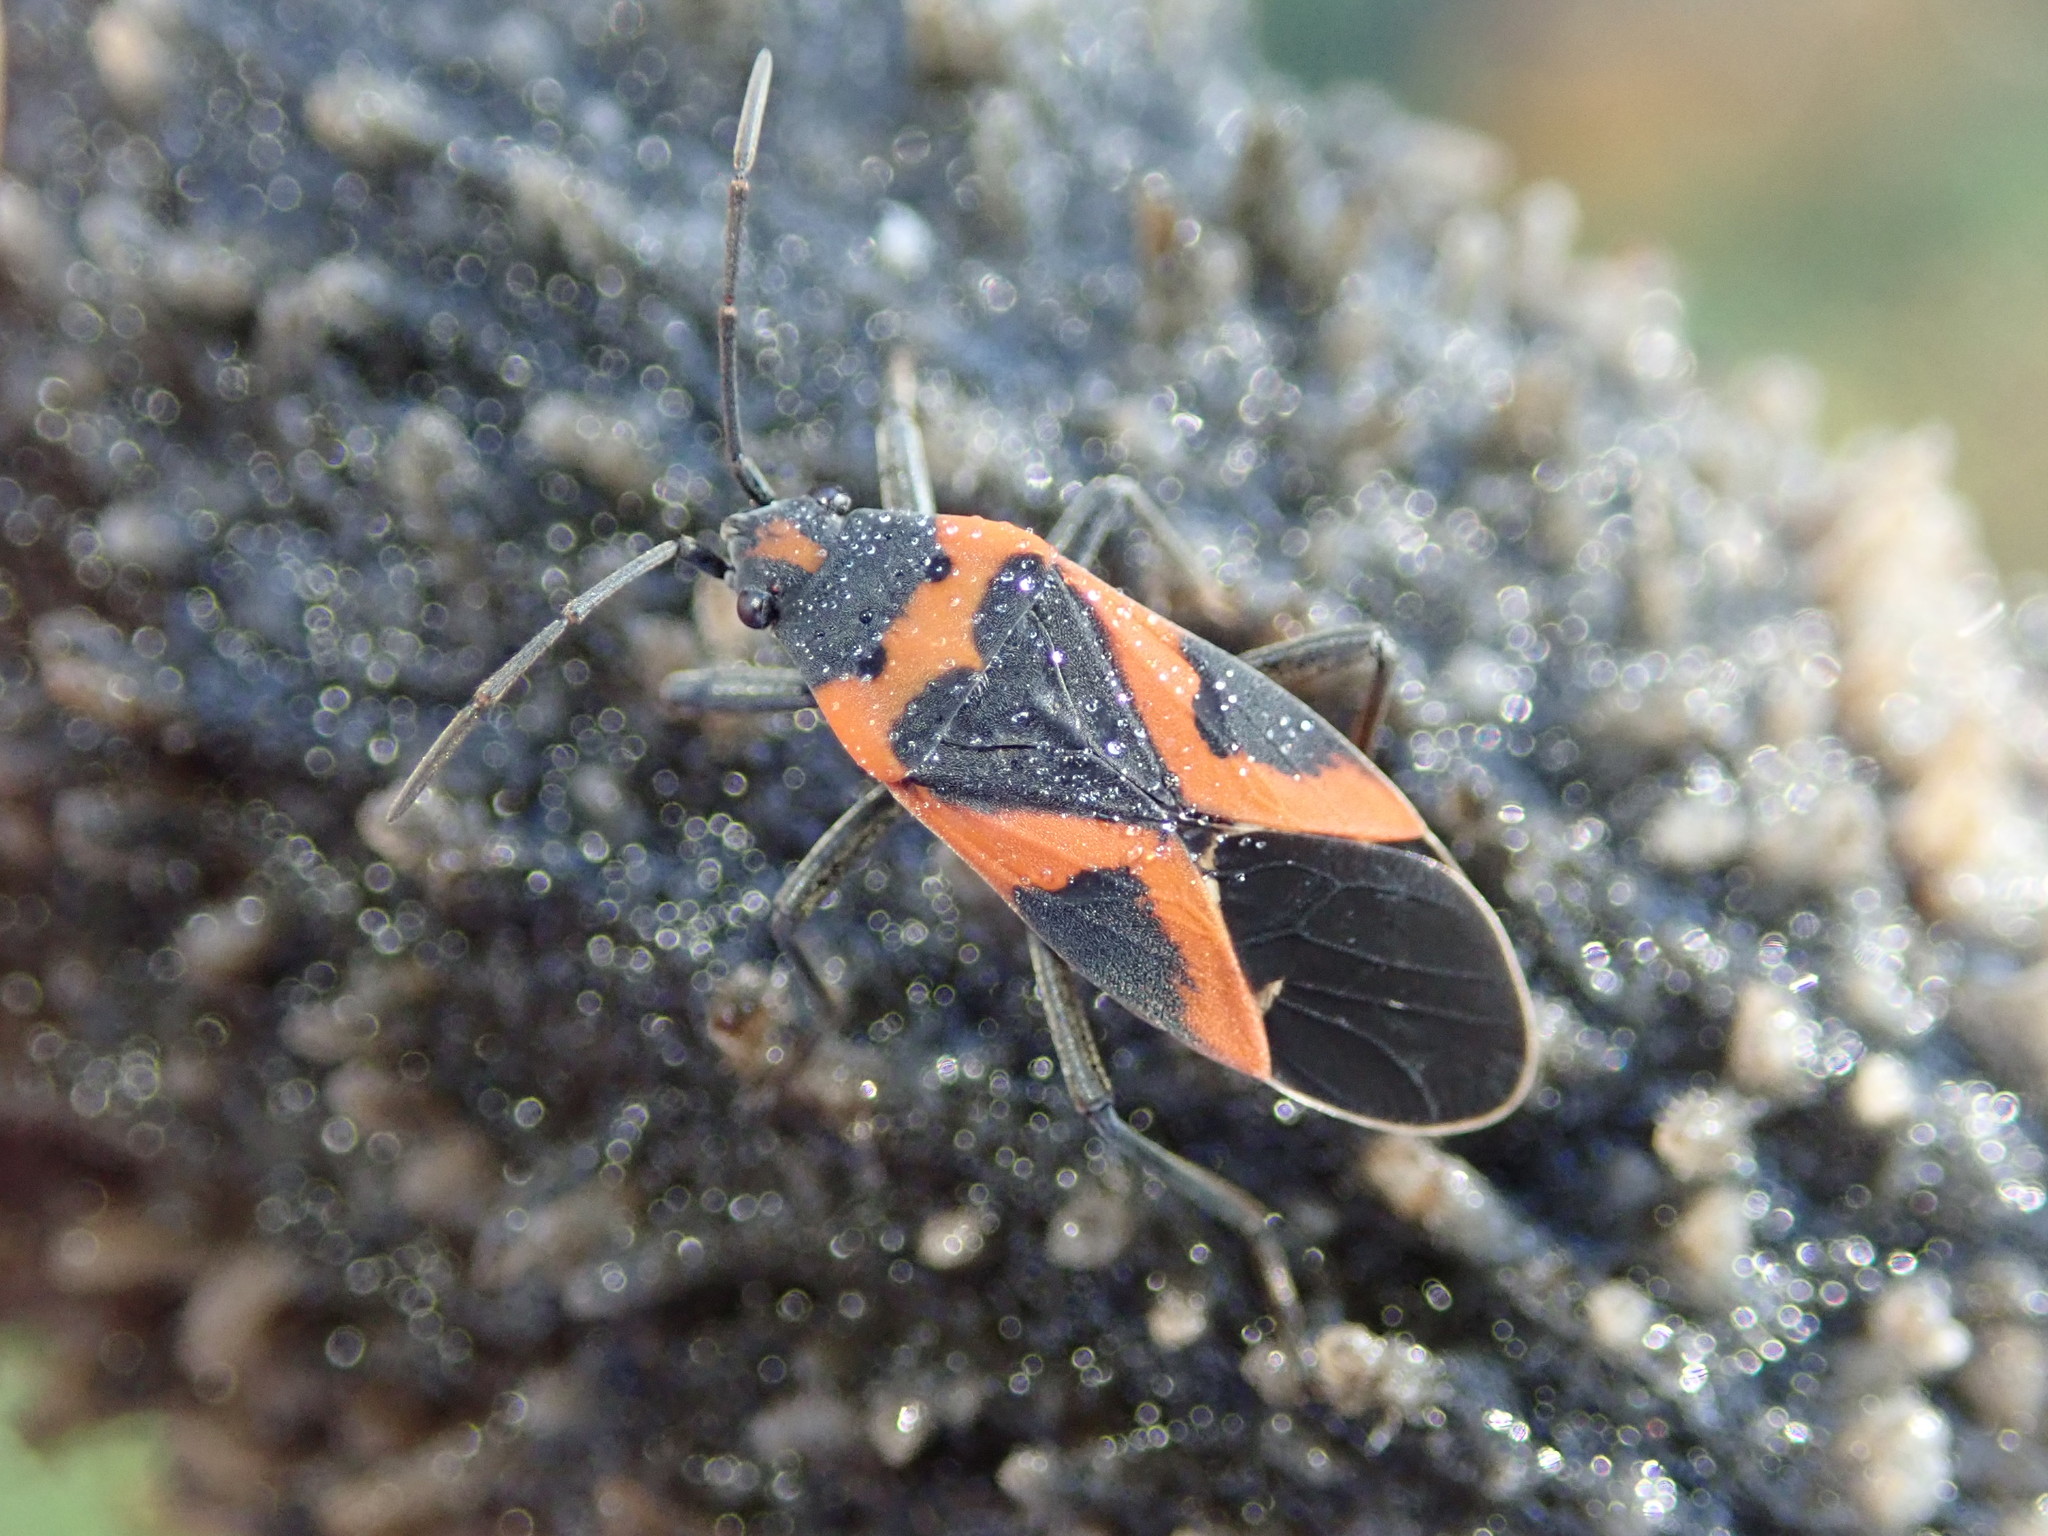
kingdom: Animalia
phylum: Arthropoda
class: Insecta
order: Hemiptera
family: Lygaeidae
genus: Lygaeus
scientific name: Lygaeus kalmii
